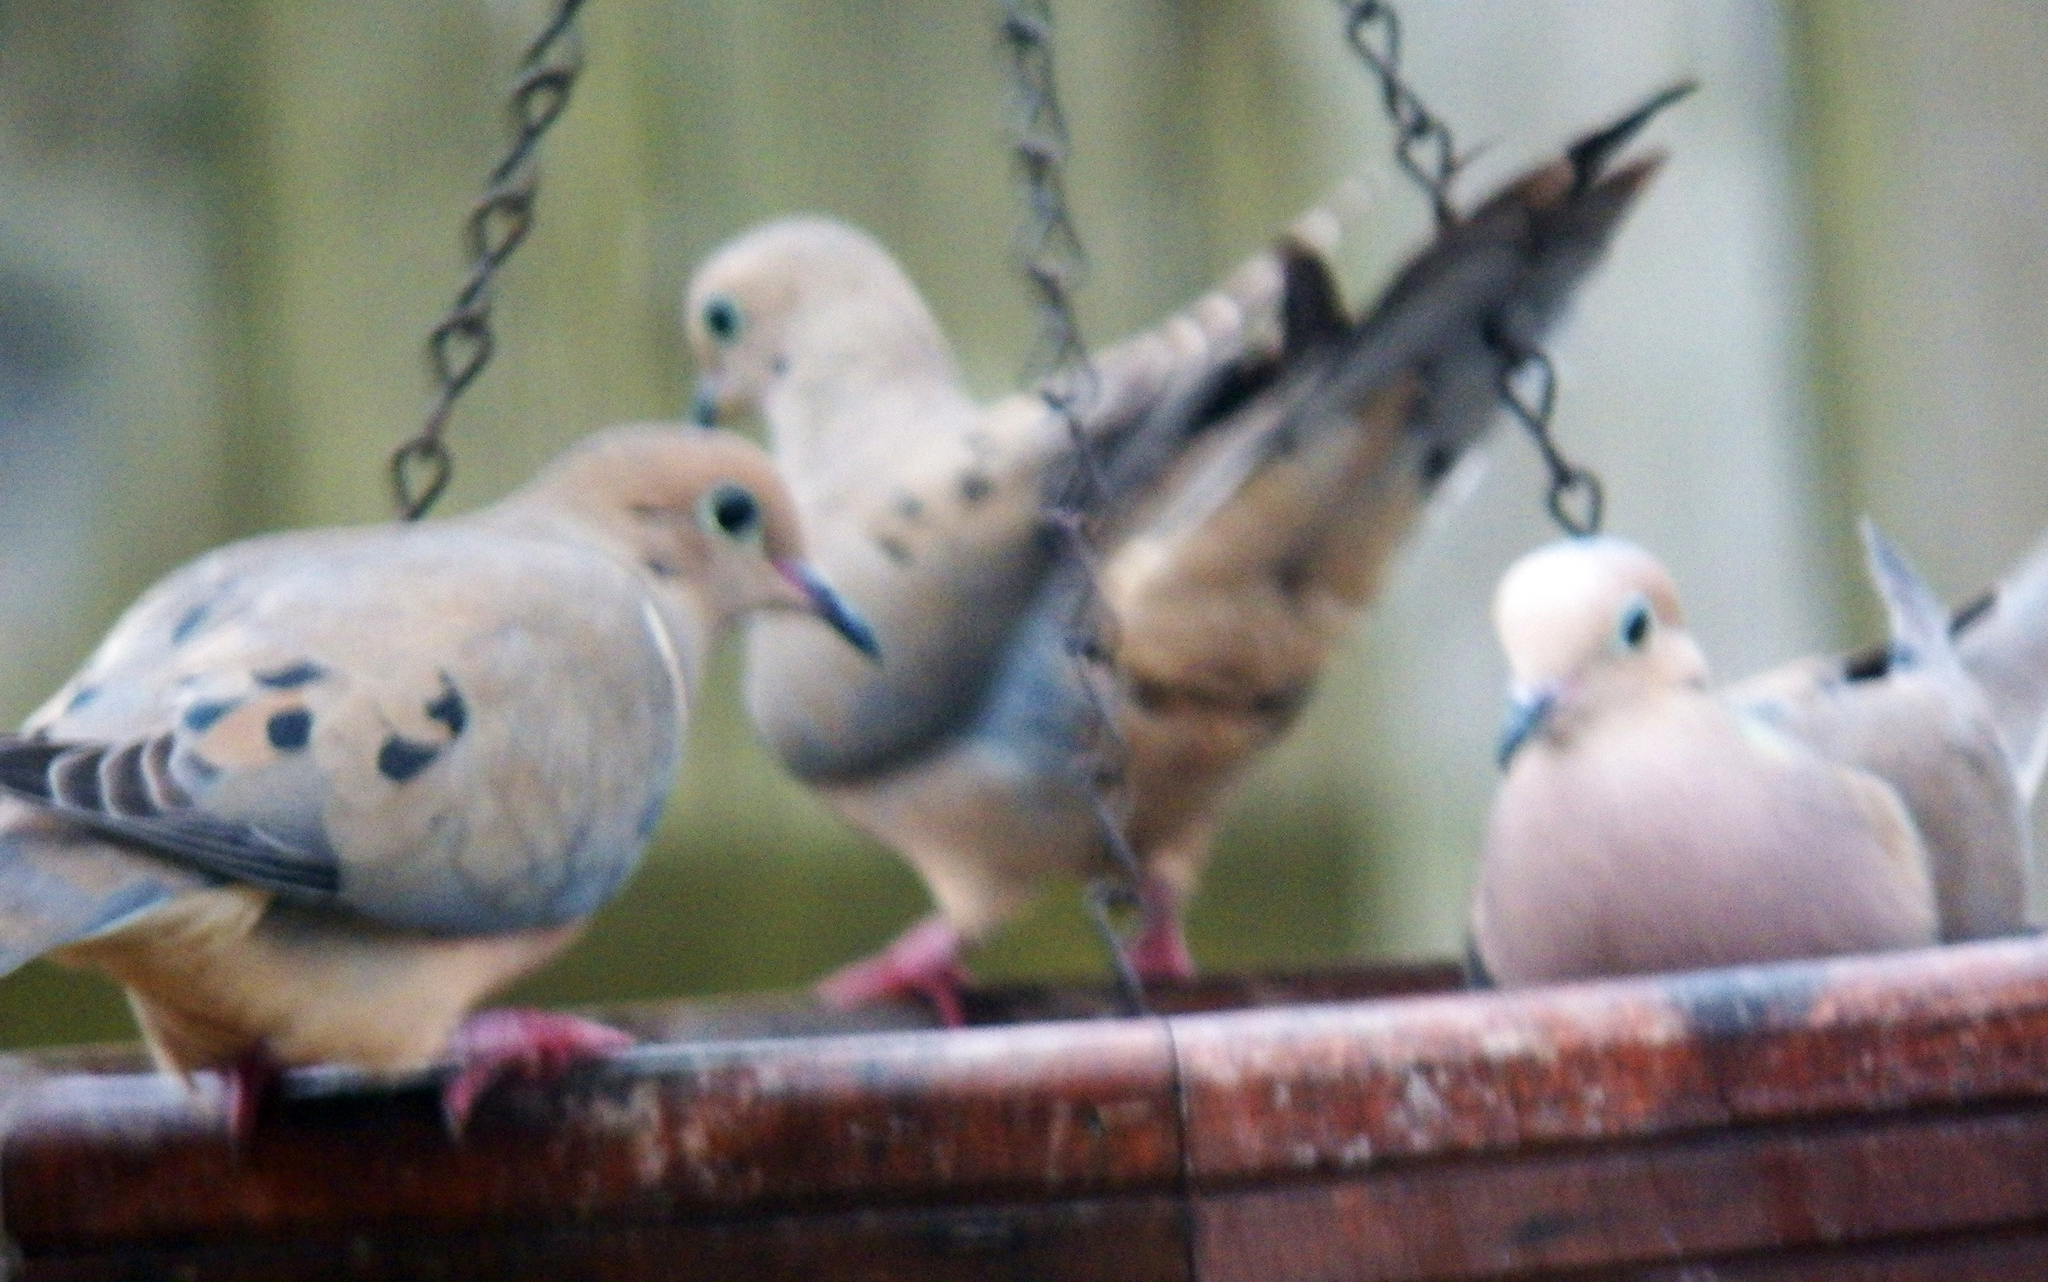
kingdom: Animalia
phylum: Chordata
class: Aves
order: Columbiformes
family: Columbidae
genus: Zenaida
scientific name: Zenaida macroura
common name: Mourning dove
